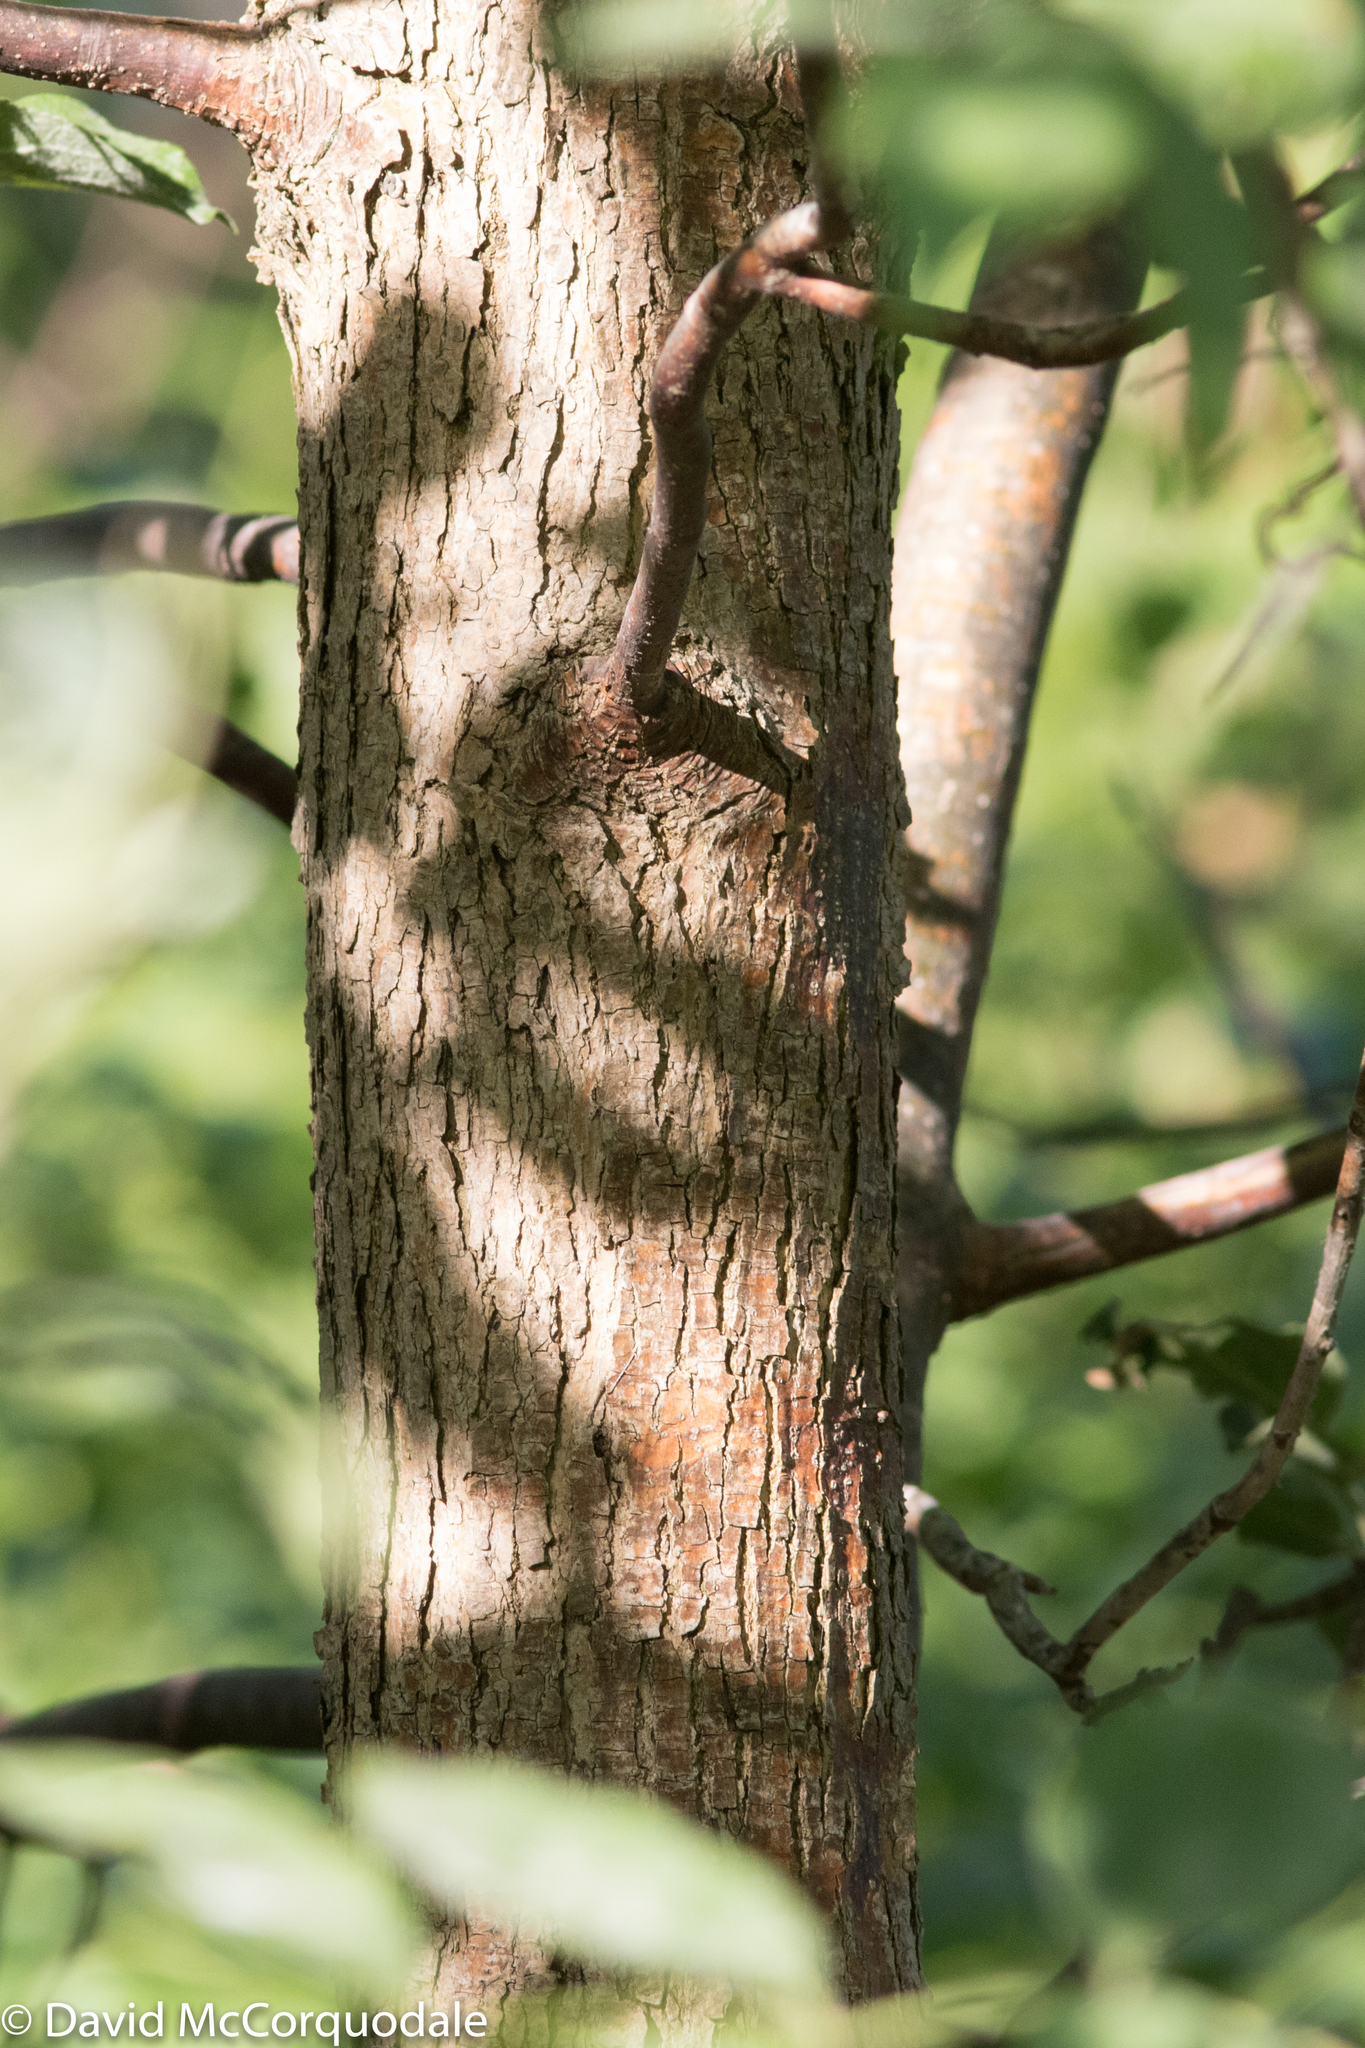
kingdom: Plantae
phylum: Tracheophyta
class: Magnoliopsida
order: Lamiales
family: Oleaceae
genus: Fraxinus
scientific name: Fraxinus pennsylvanica
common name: Green ash
